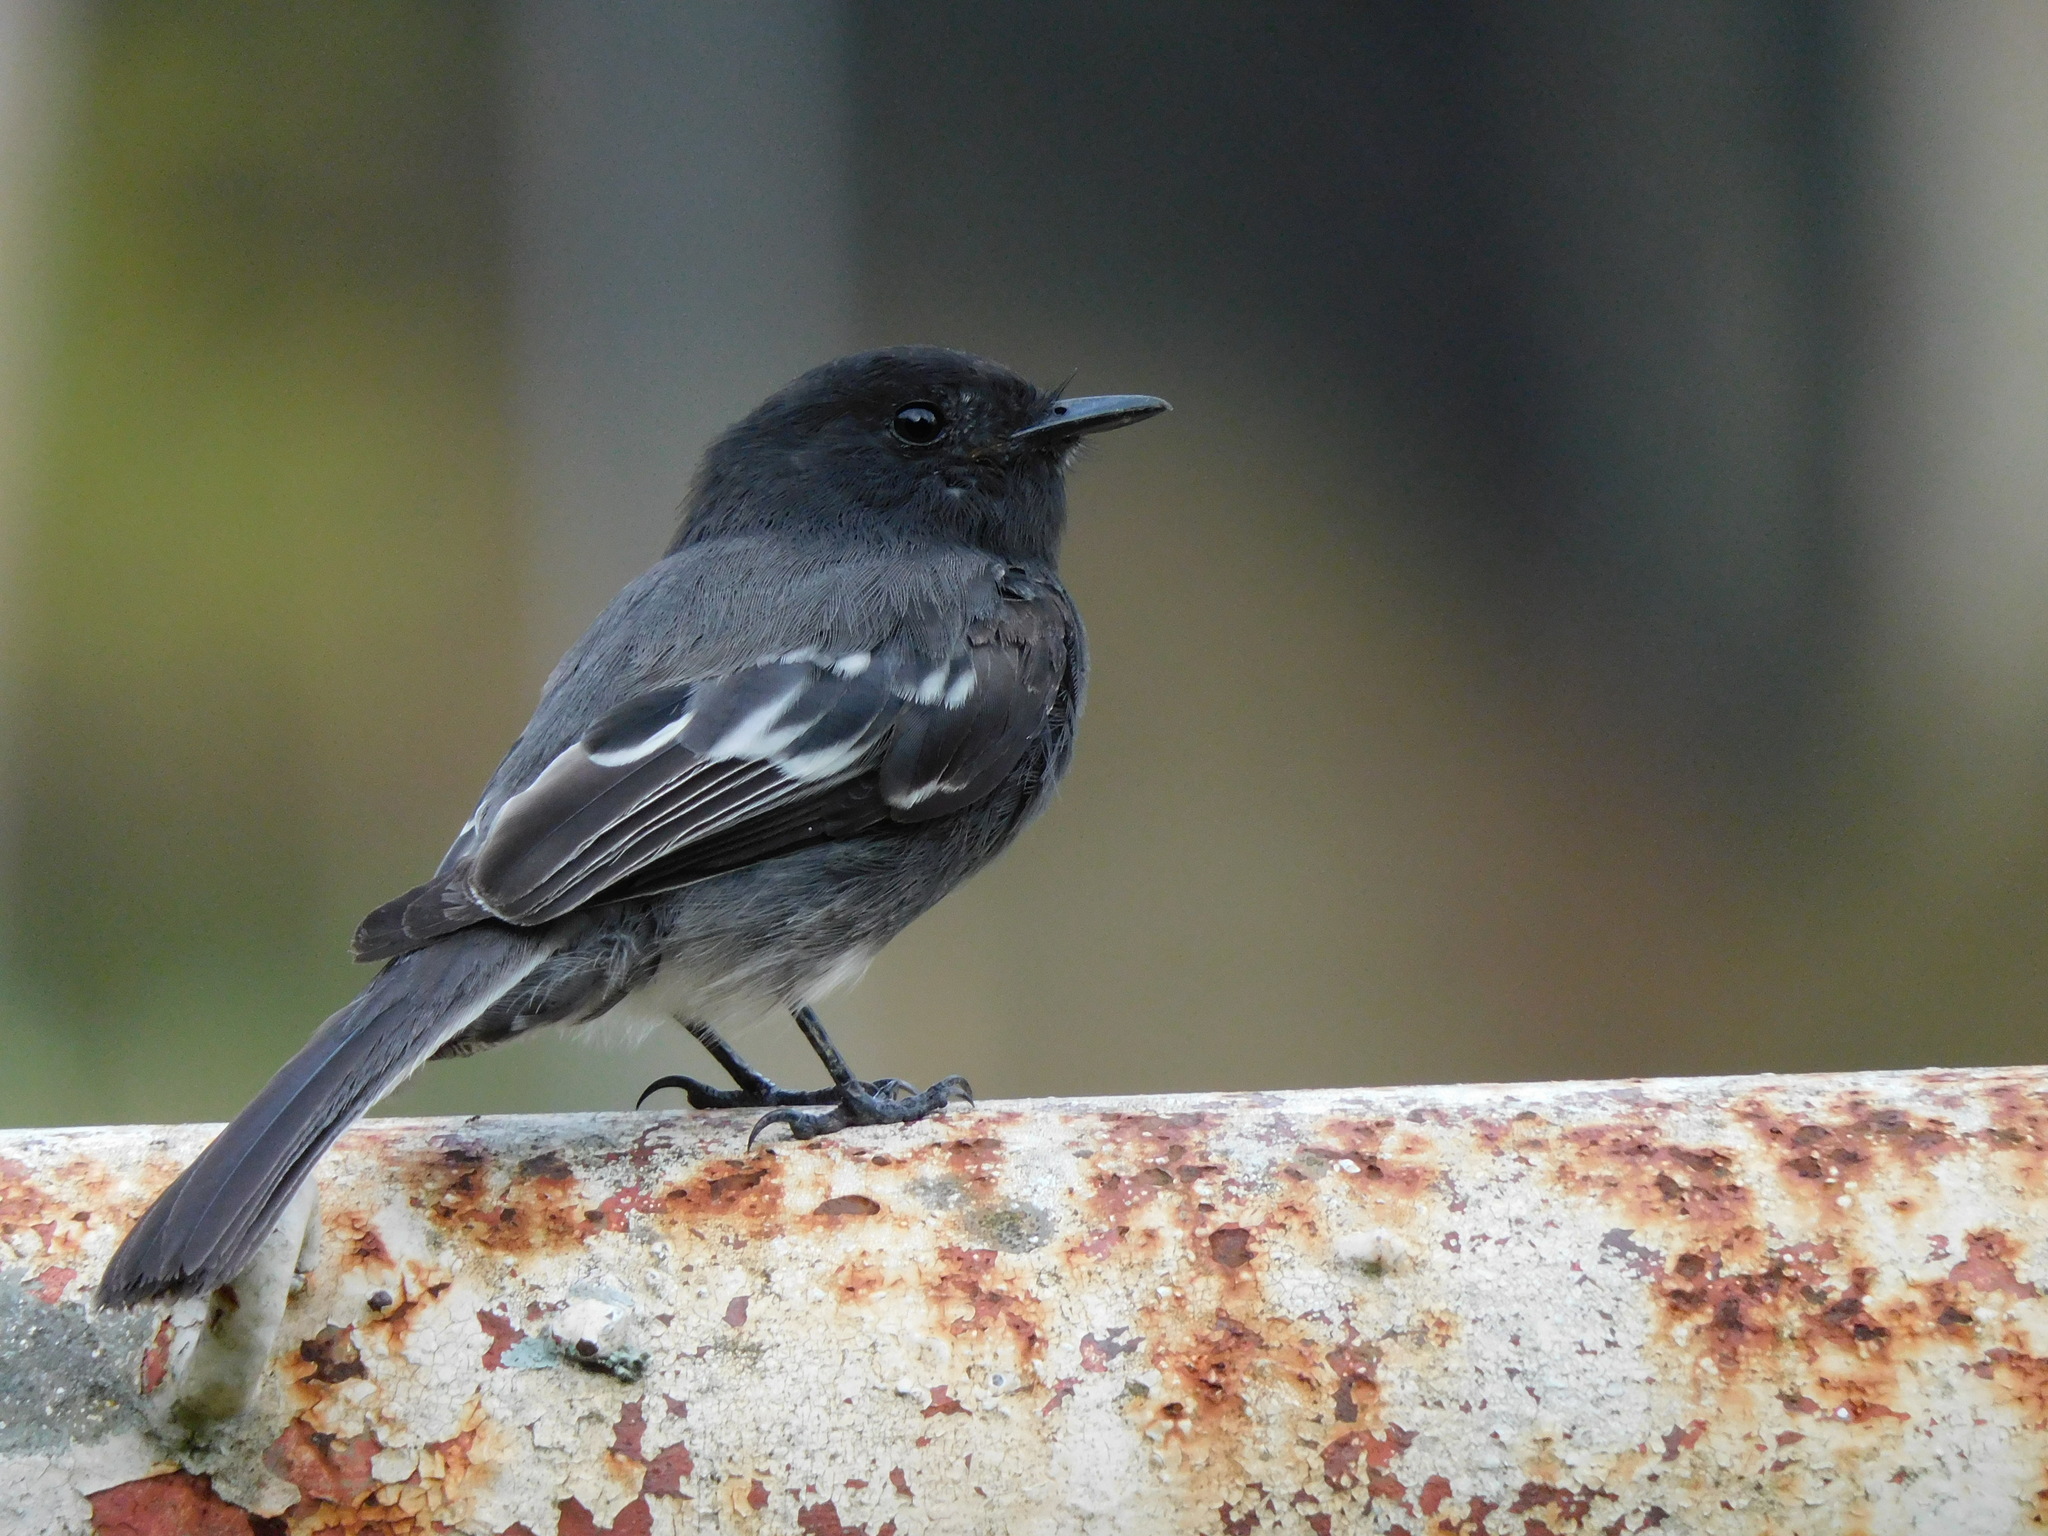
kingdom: Animalia
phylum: Chordata
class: Aves
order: Passeriformes
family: Tyrannidae
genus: Sayornis
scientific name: Sayornis nigricans
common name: Black phoebe
